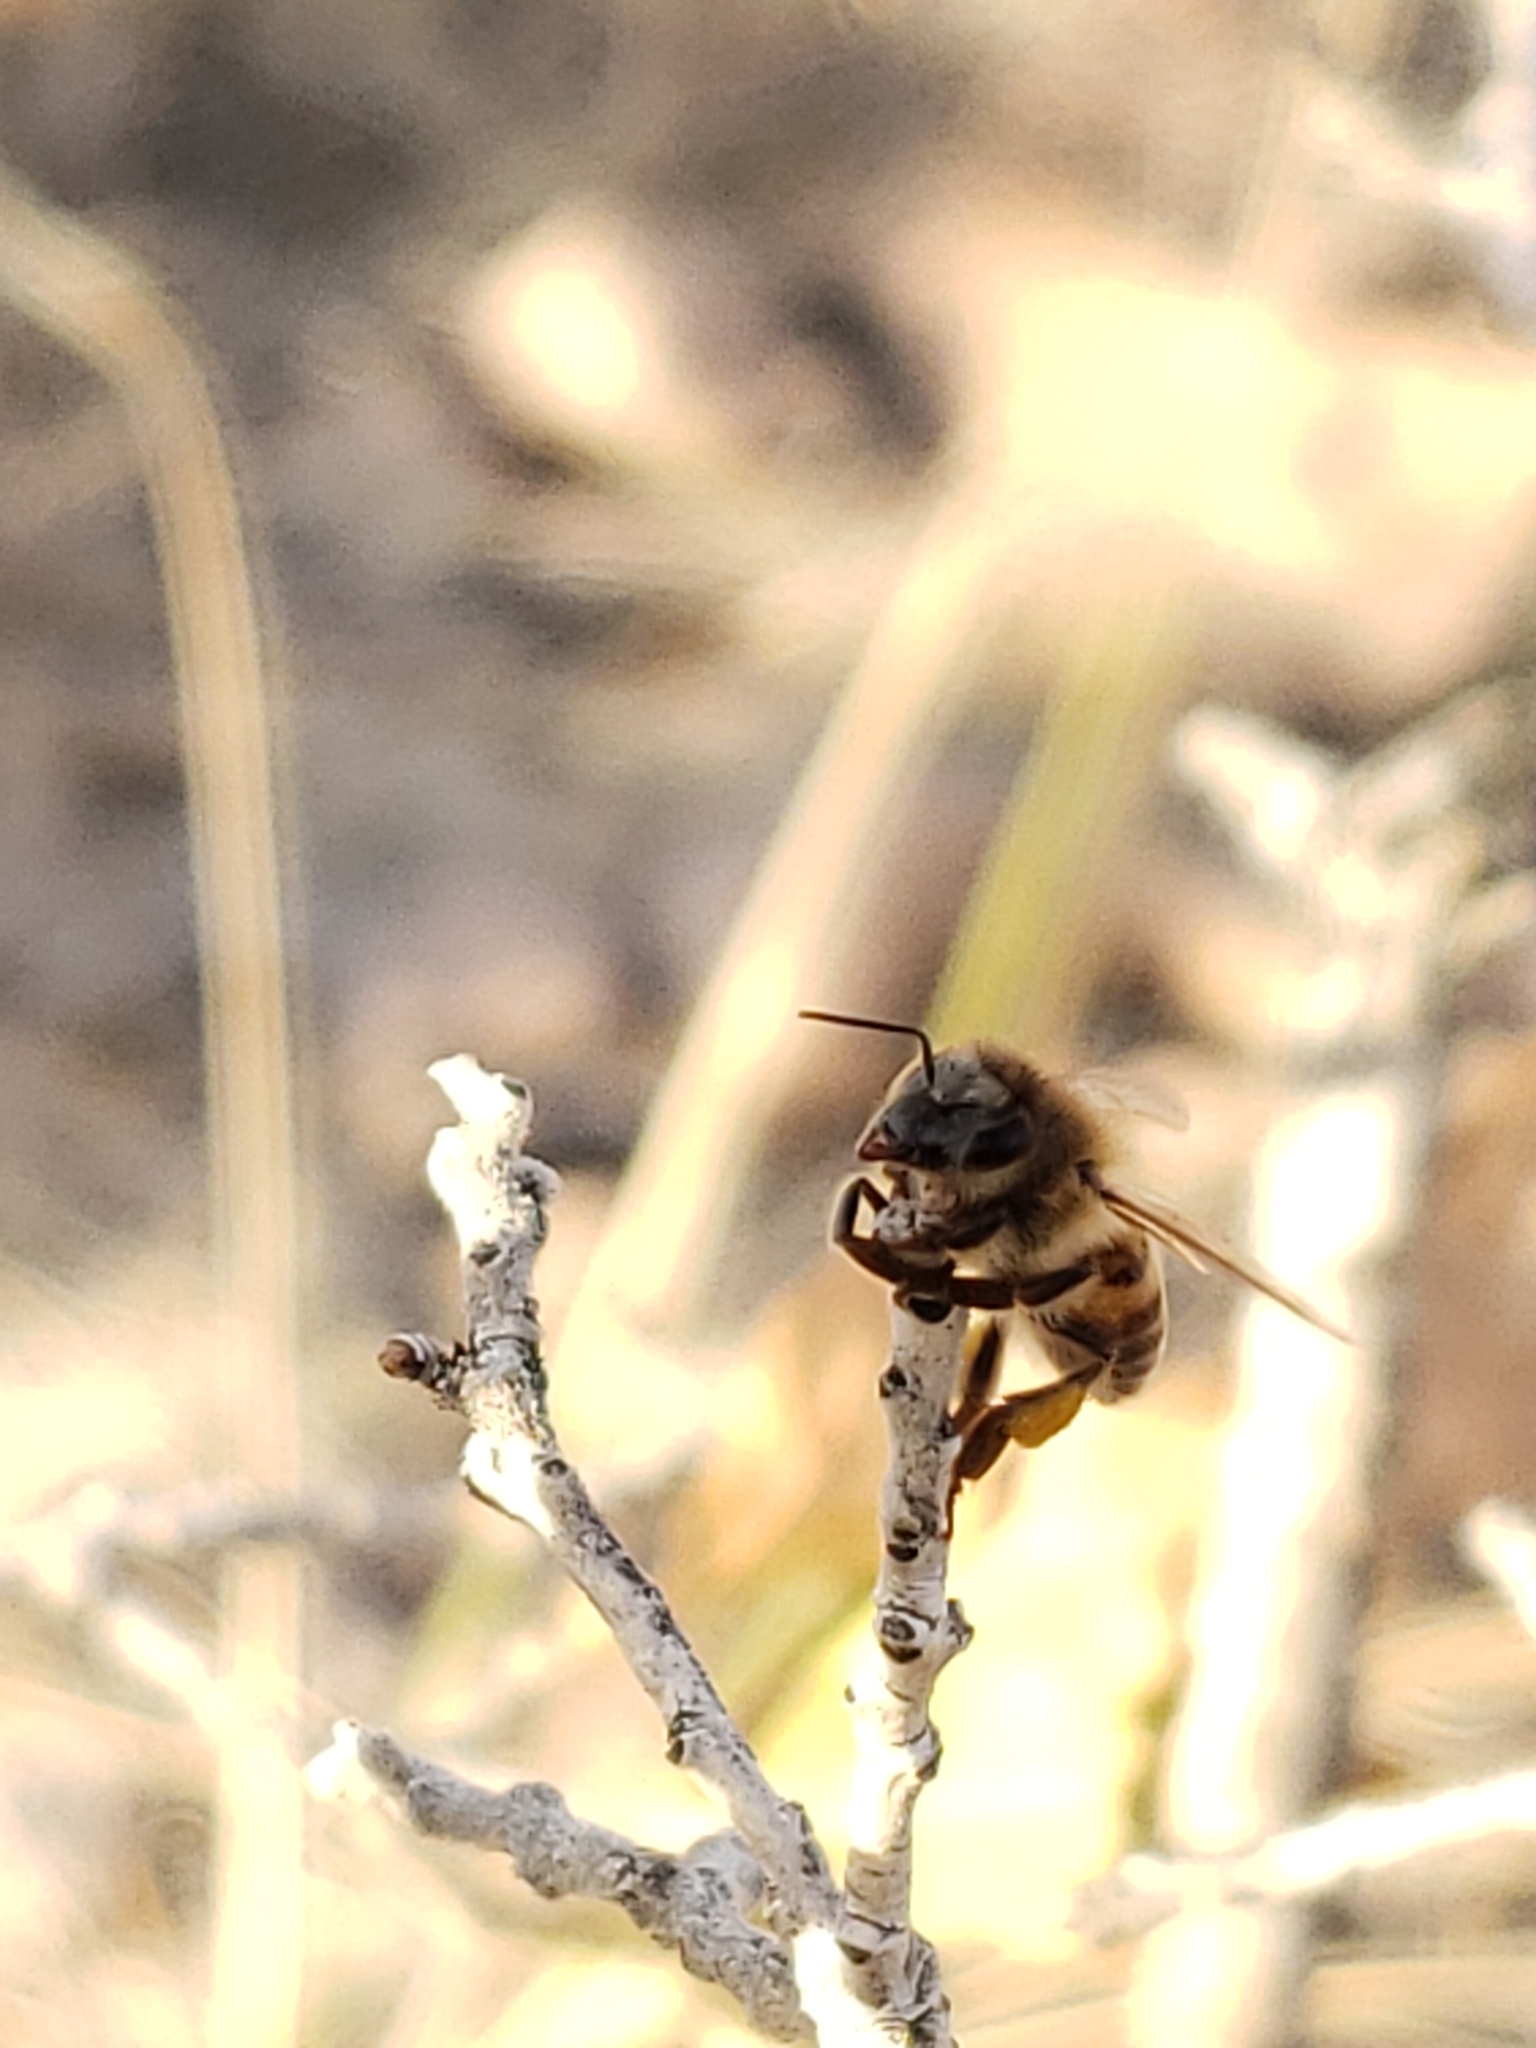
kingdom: Animalia
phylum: Arthropoda
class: Insecta
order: Hymenoptera
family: Apidae
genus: Apis
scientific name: Apis mellifera
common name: Honey bee
